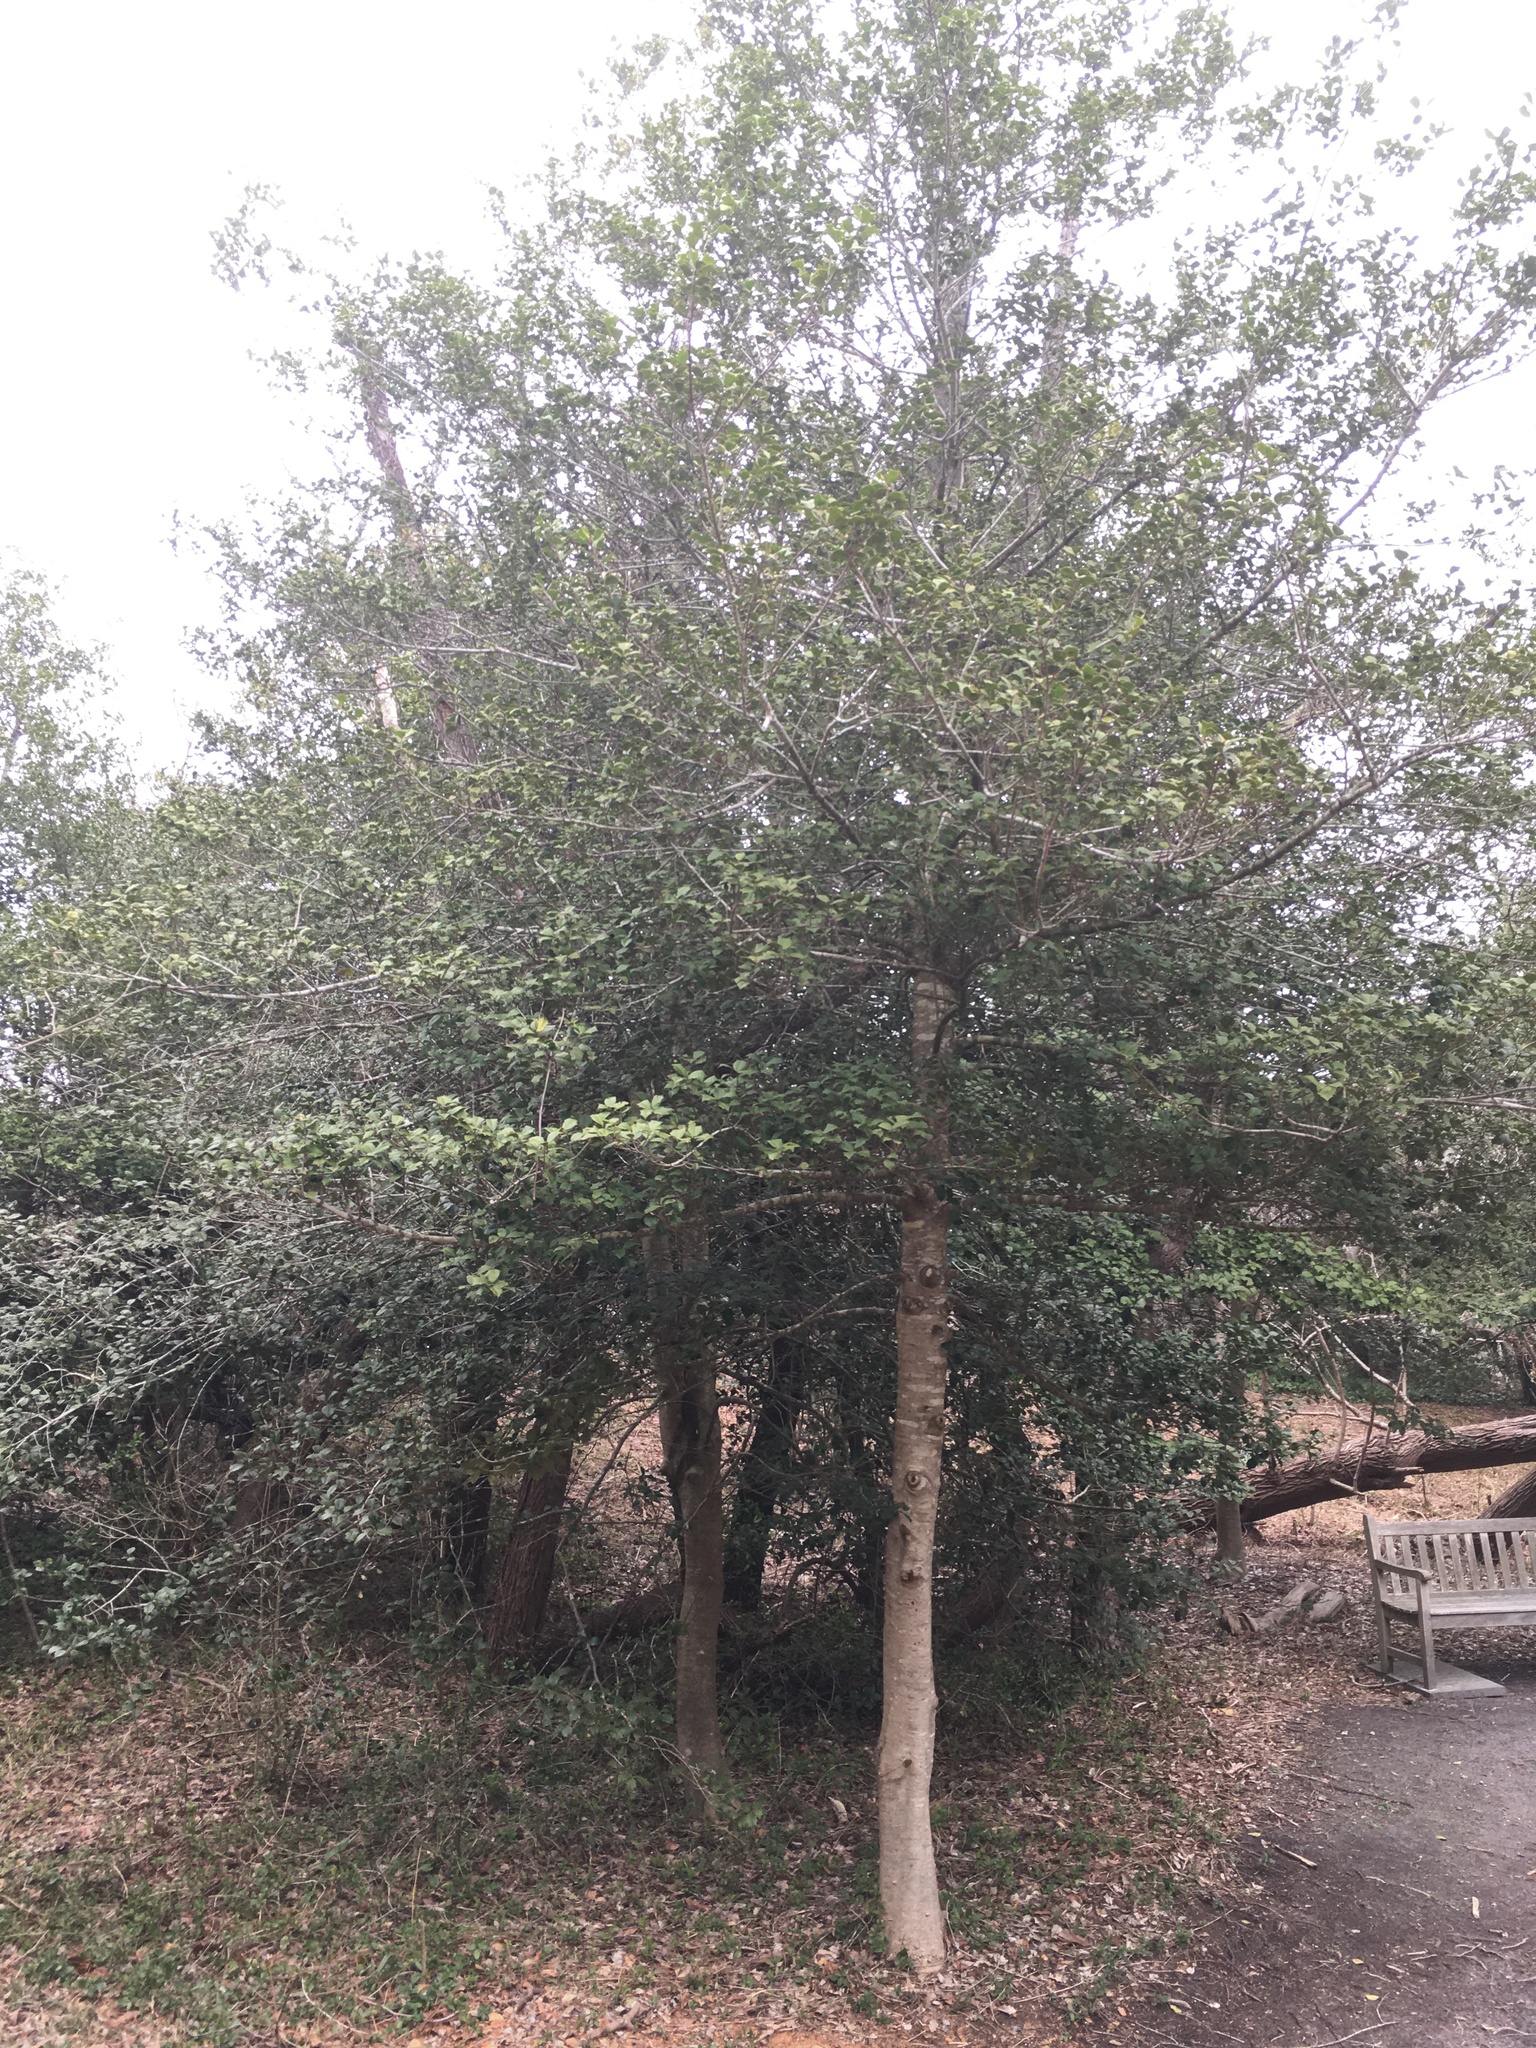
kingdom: Plantae
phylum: Tracheophyta
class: Magnoliopsida
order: Aquifoliales
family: Aquifoliaceae
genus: Ilex
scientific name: Ilex opaca
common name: American holly
